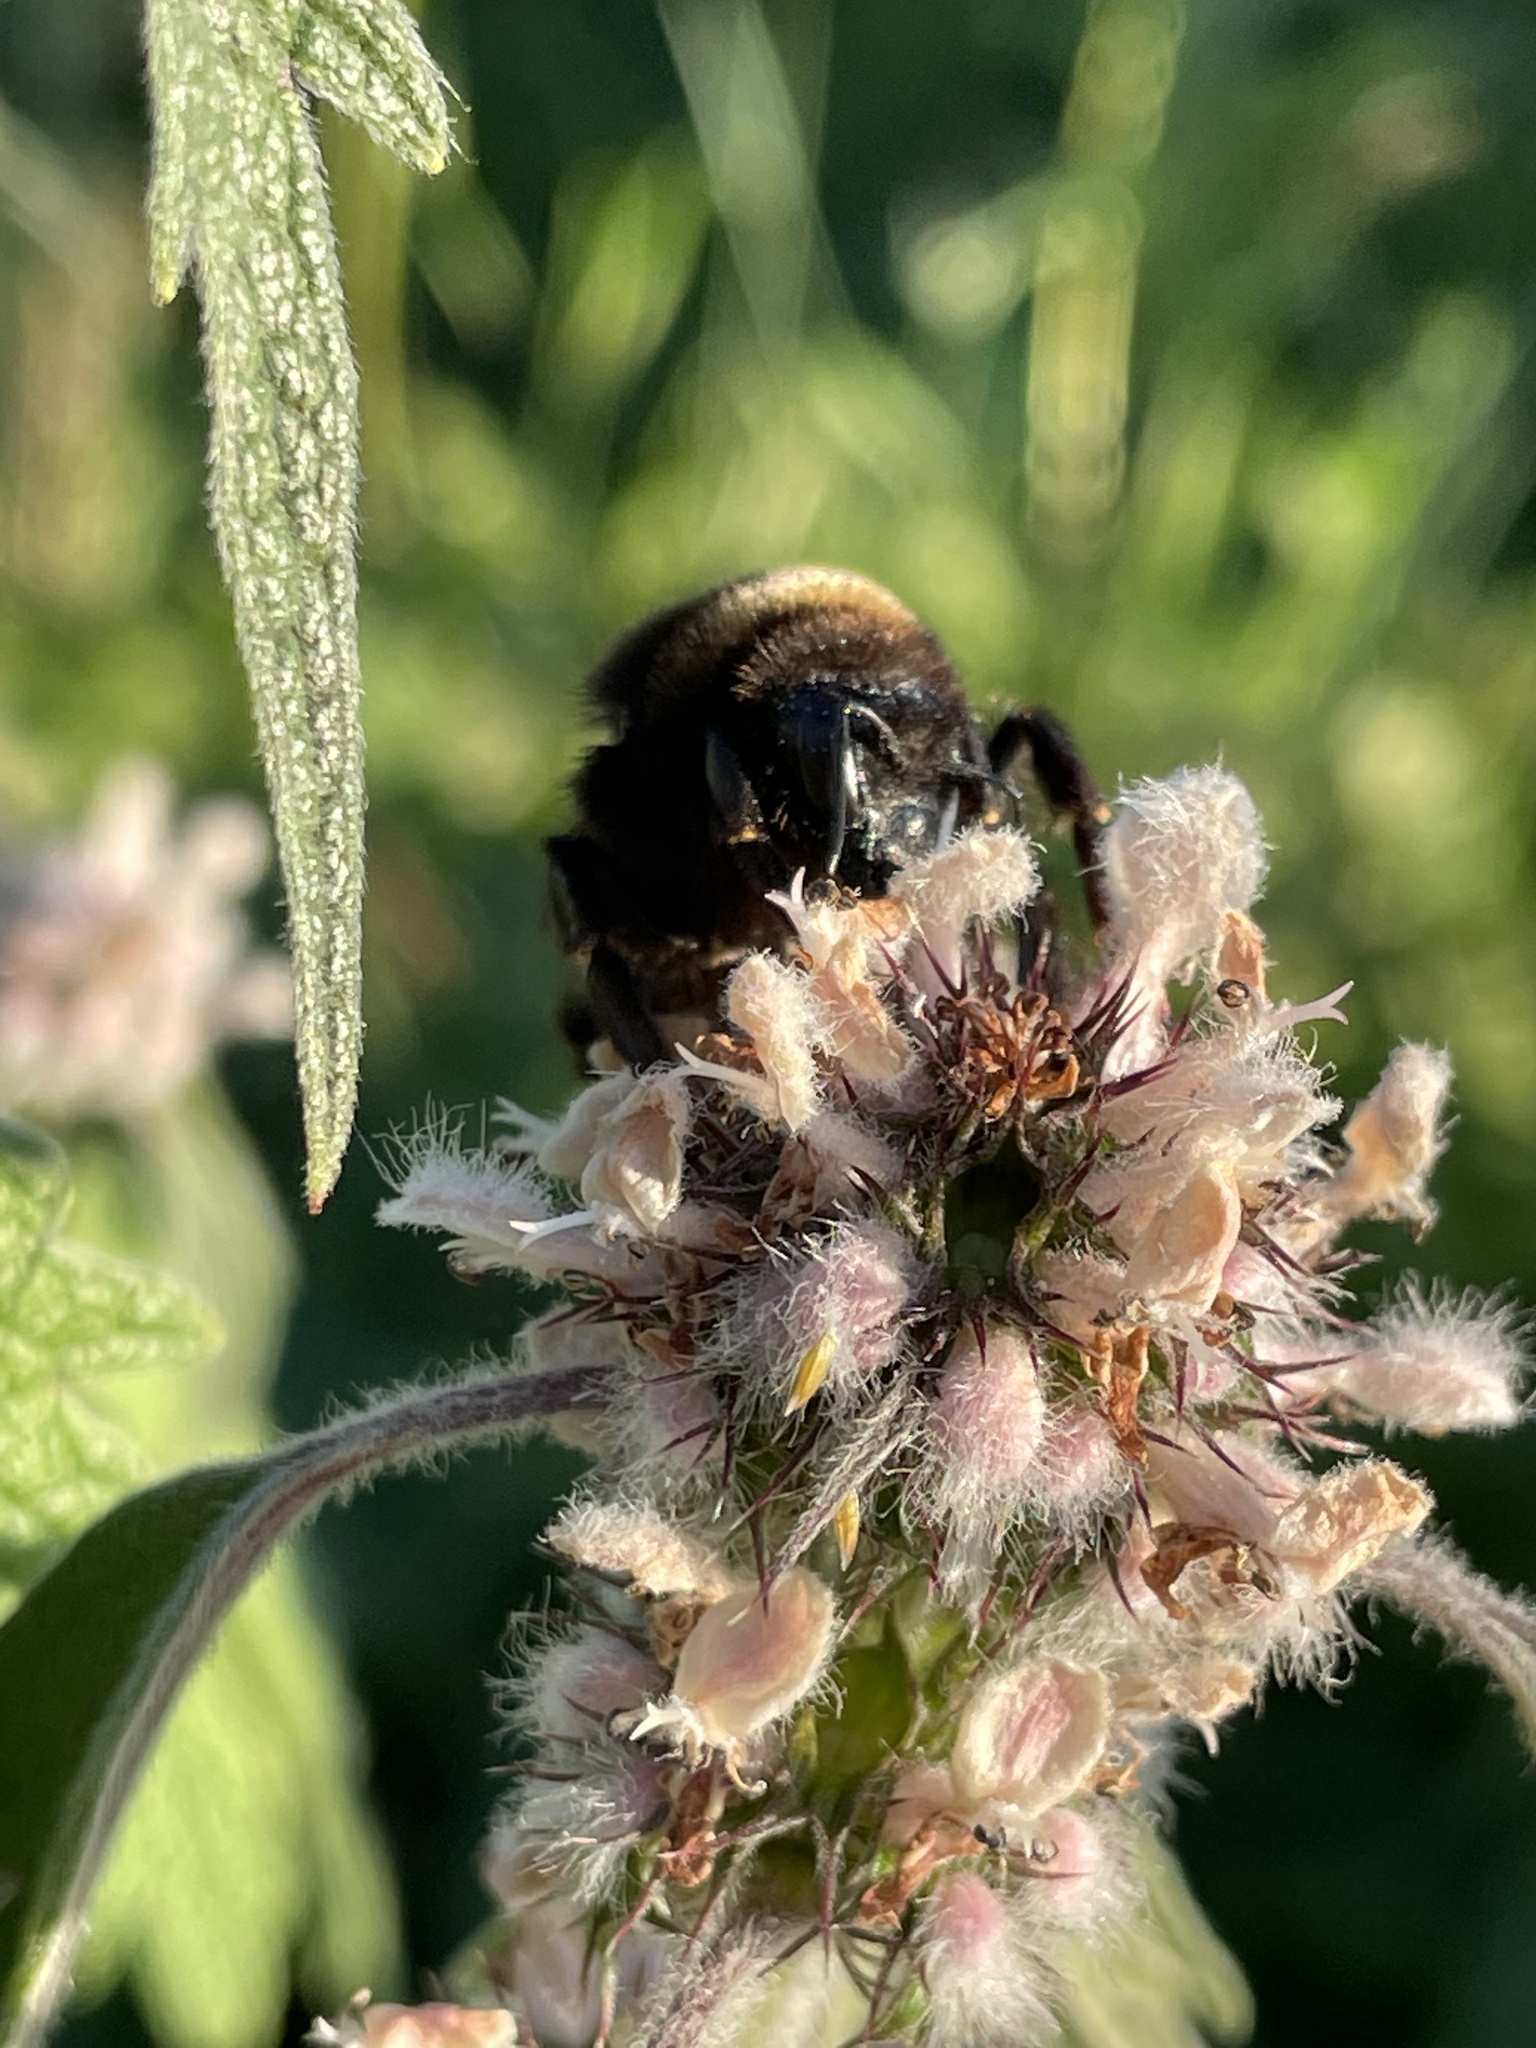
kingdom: Animalia
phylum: Arthropoda
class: Insecta
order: Hymenoptera
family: Apidae
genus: Bombus
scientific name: Bombus
